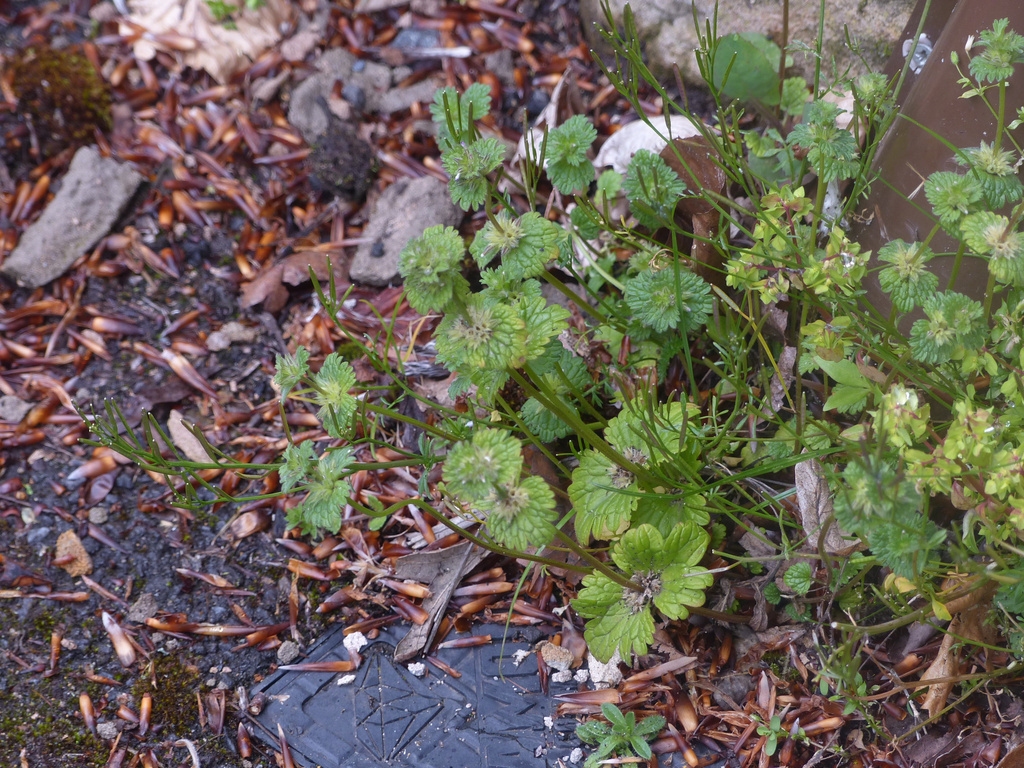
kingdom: Plantae
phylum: Tracheophyta
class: Magnoliopsida
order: Lamiales
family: Lamiaceae
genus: Lamium
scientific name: Lamium amplexicaule
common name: Henbit dead-nettle
